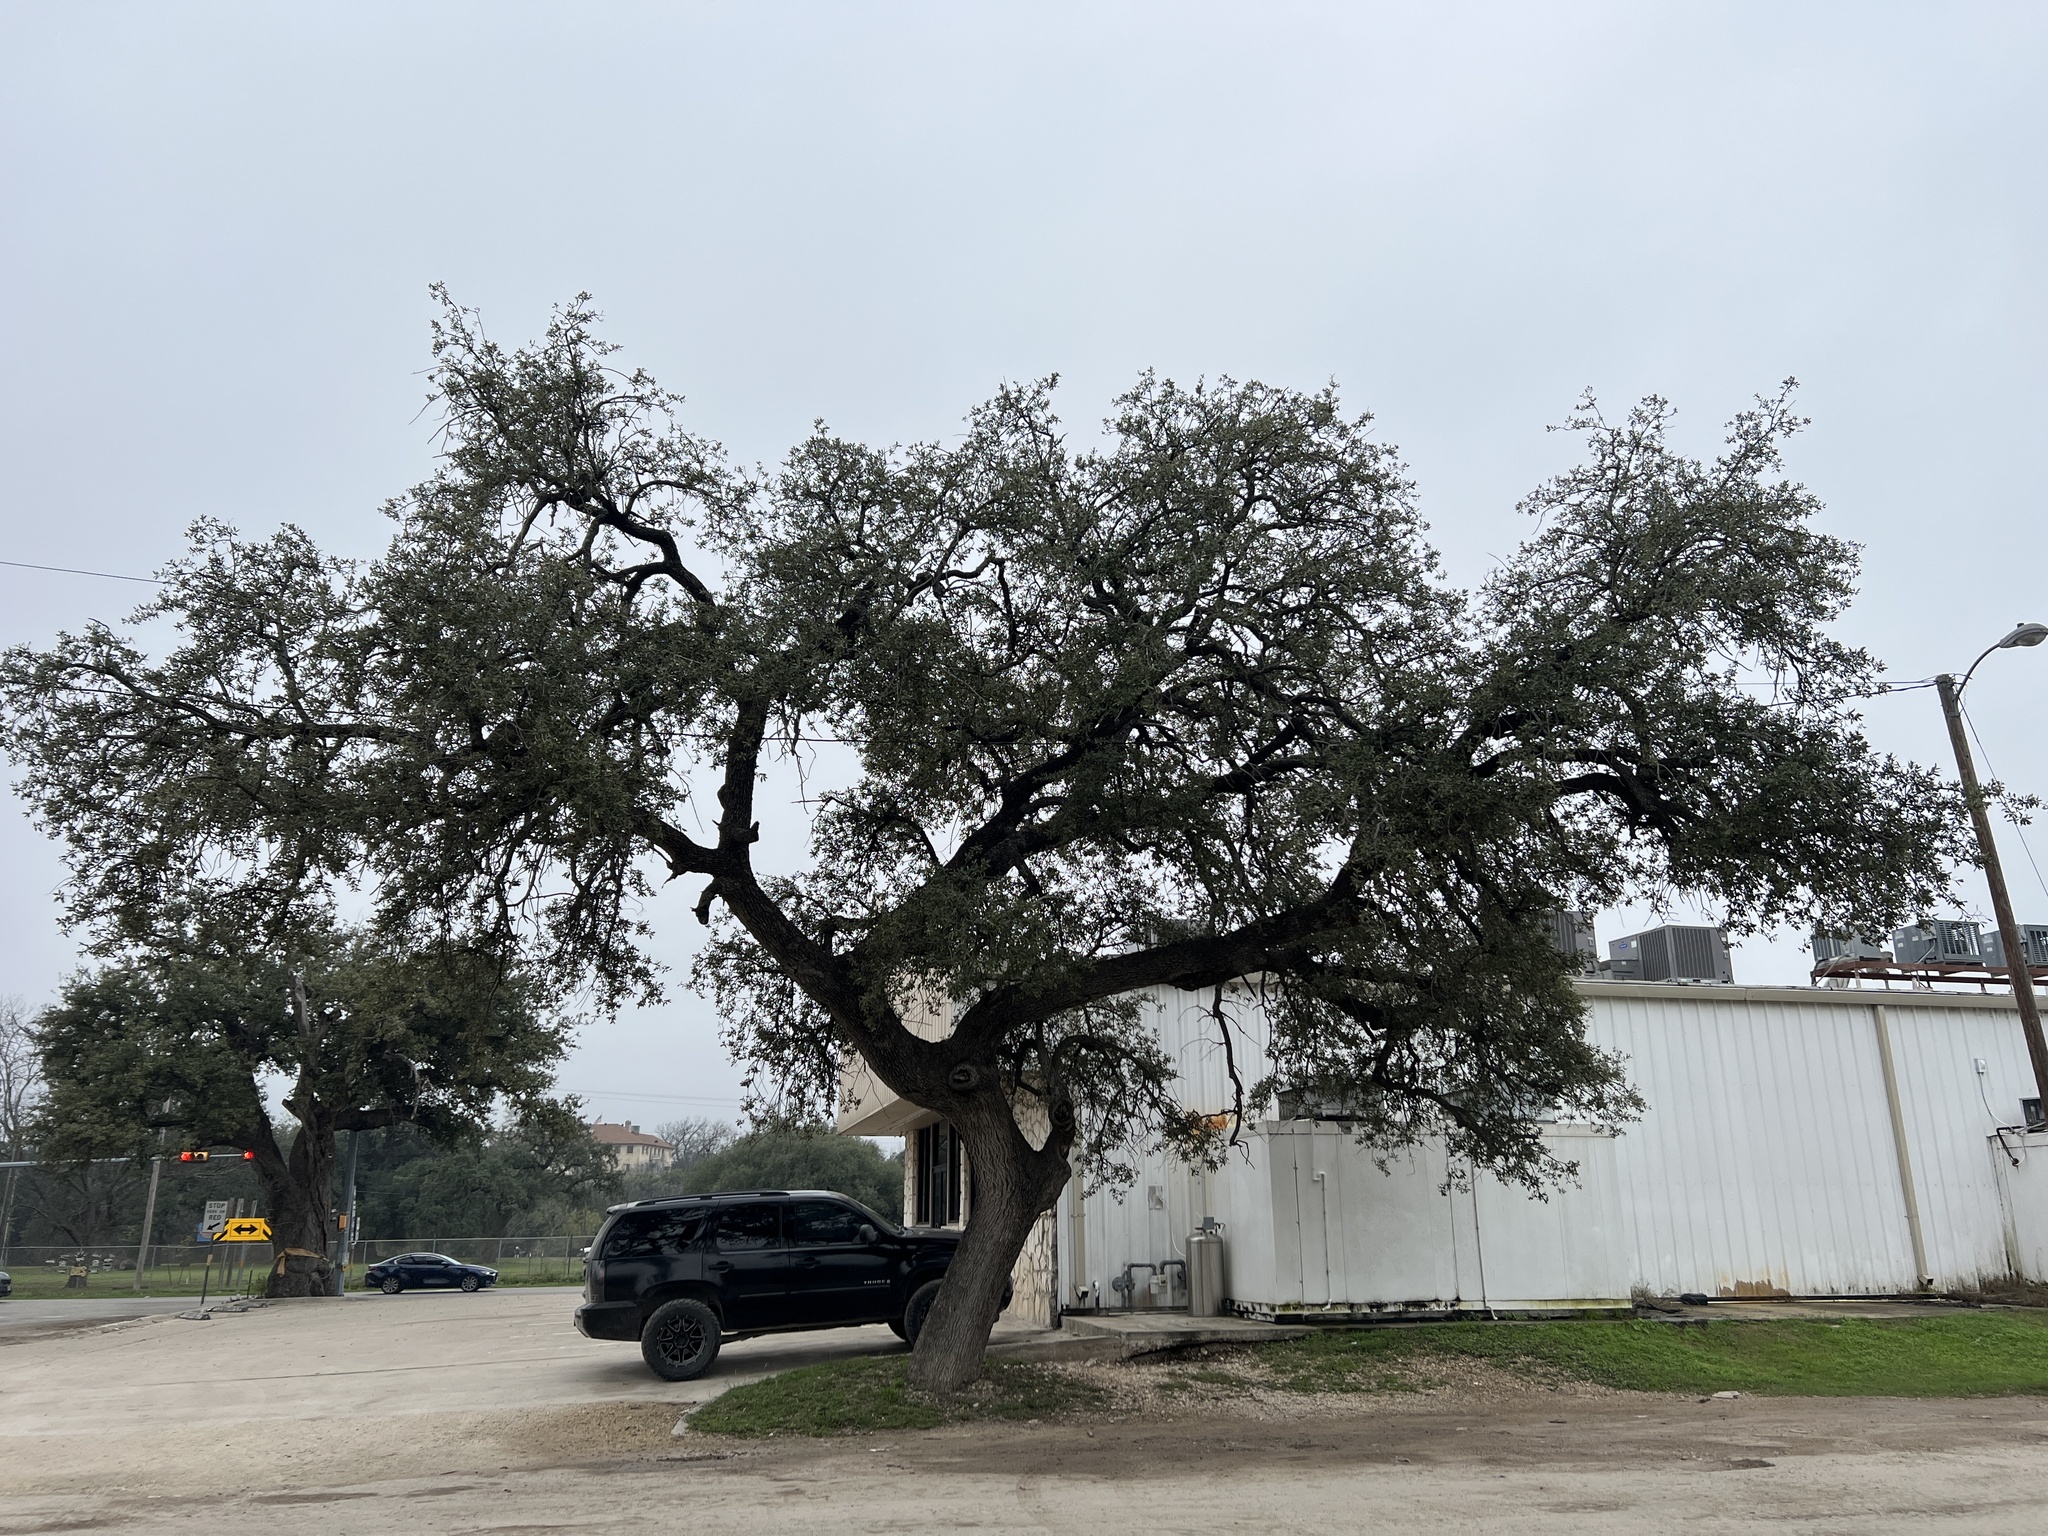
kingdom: Plantae
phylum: Tracheophyta
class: Magnoliopsida
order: Fagales
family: Fagaceae
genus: Quercus
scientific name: Quercus fusiformis
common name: Texas live oak
